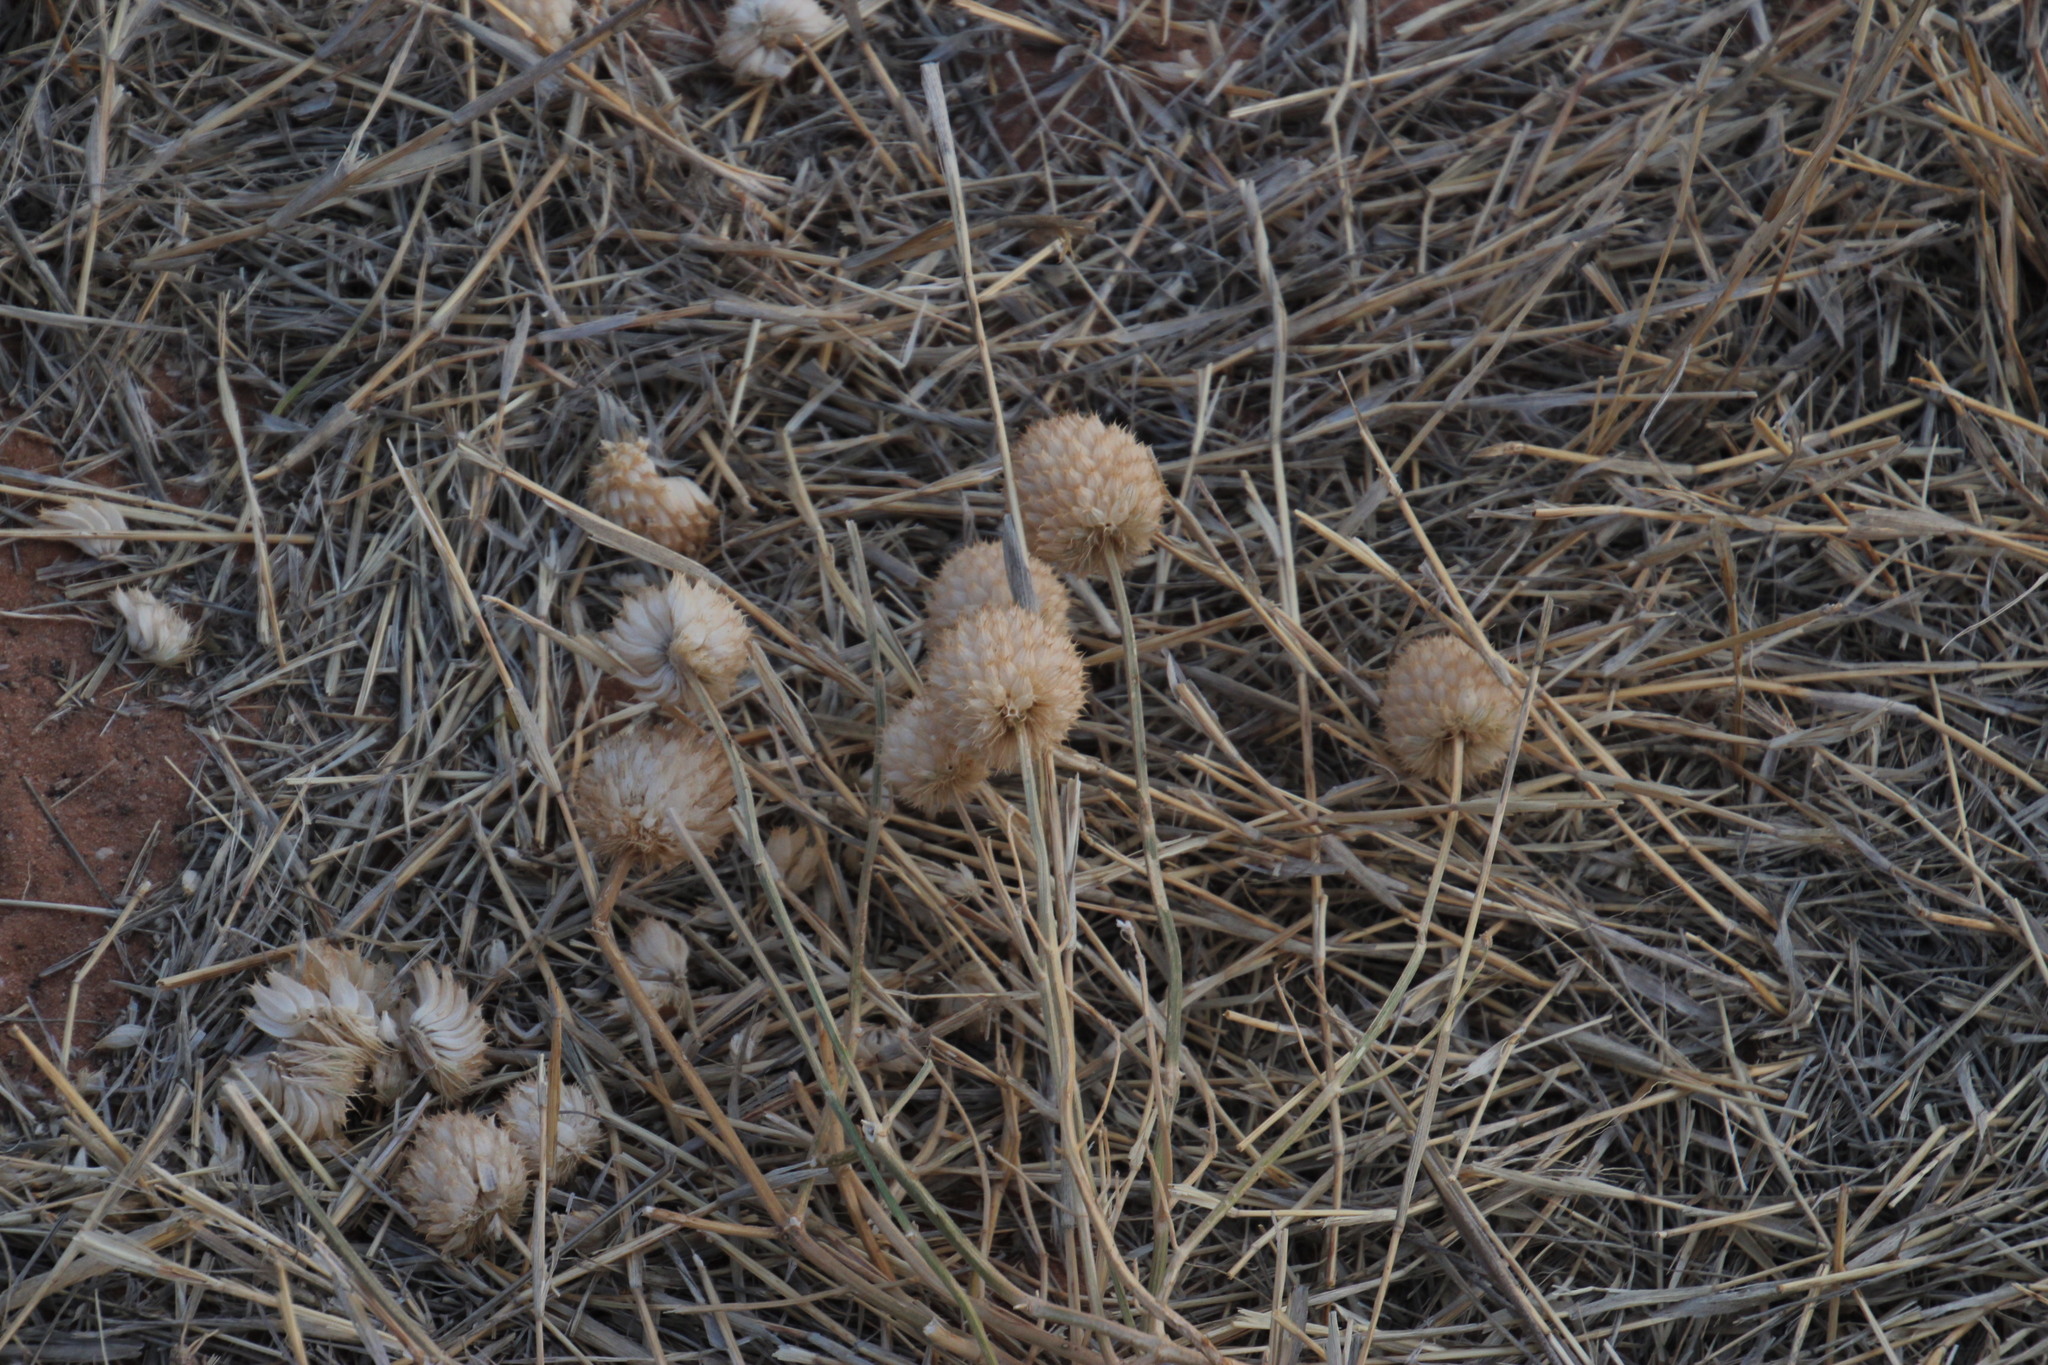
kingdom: Plantae
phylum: Tracheophyta
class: Magnoliopsida
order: Lamiales
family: Lamiaceae
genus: Acrotome
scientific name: Acrotome inflata
